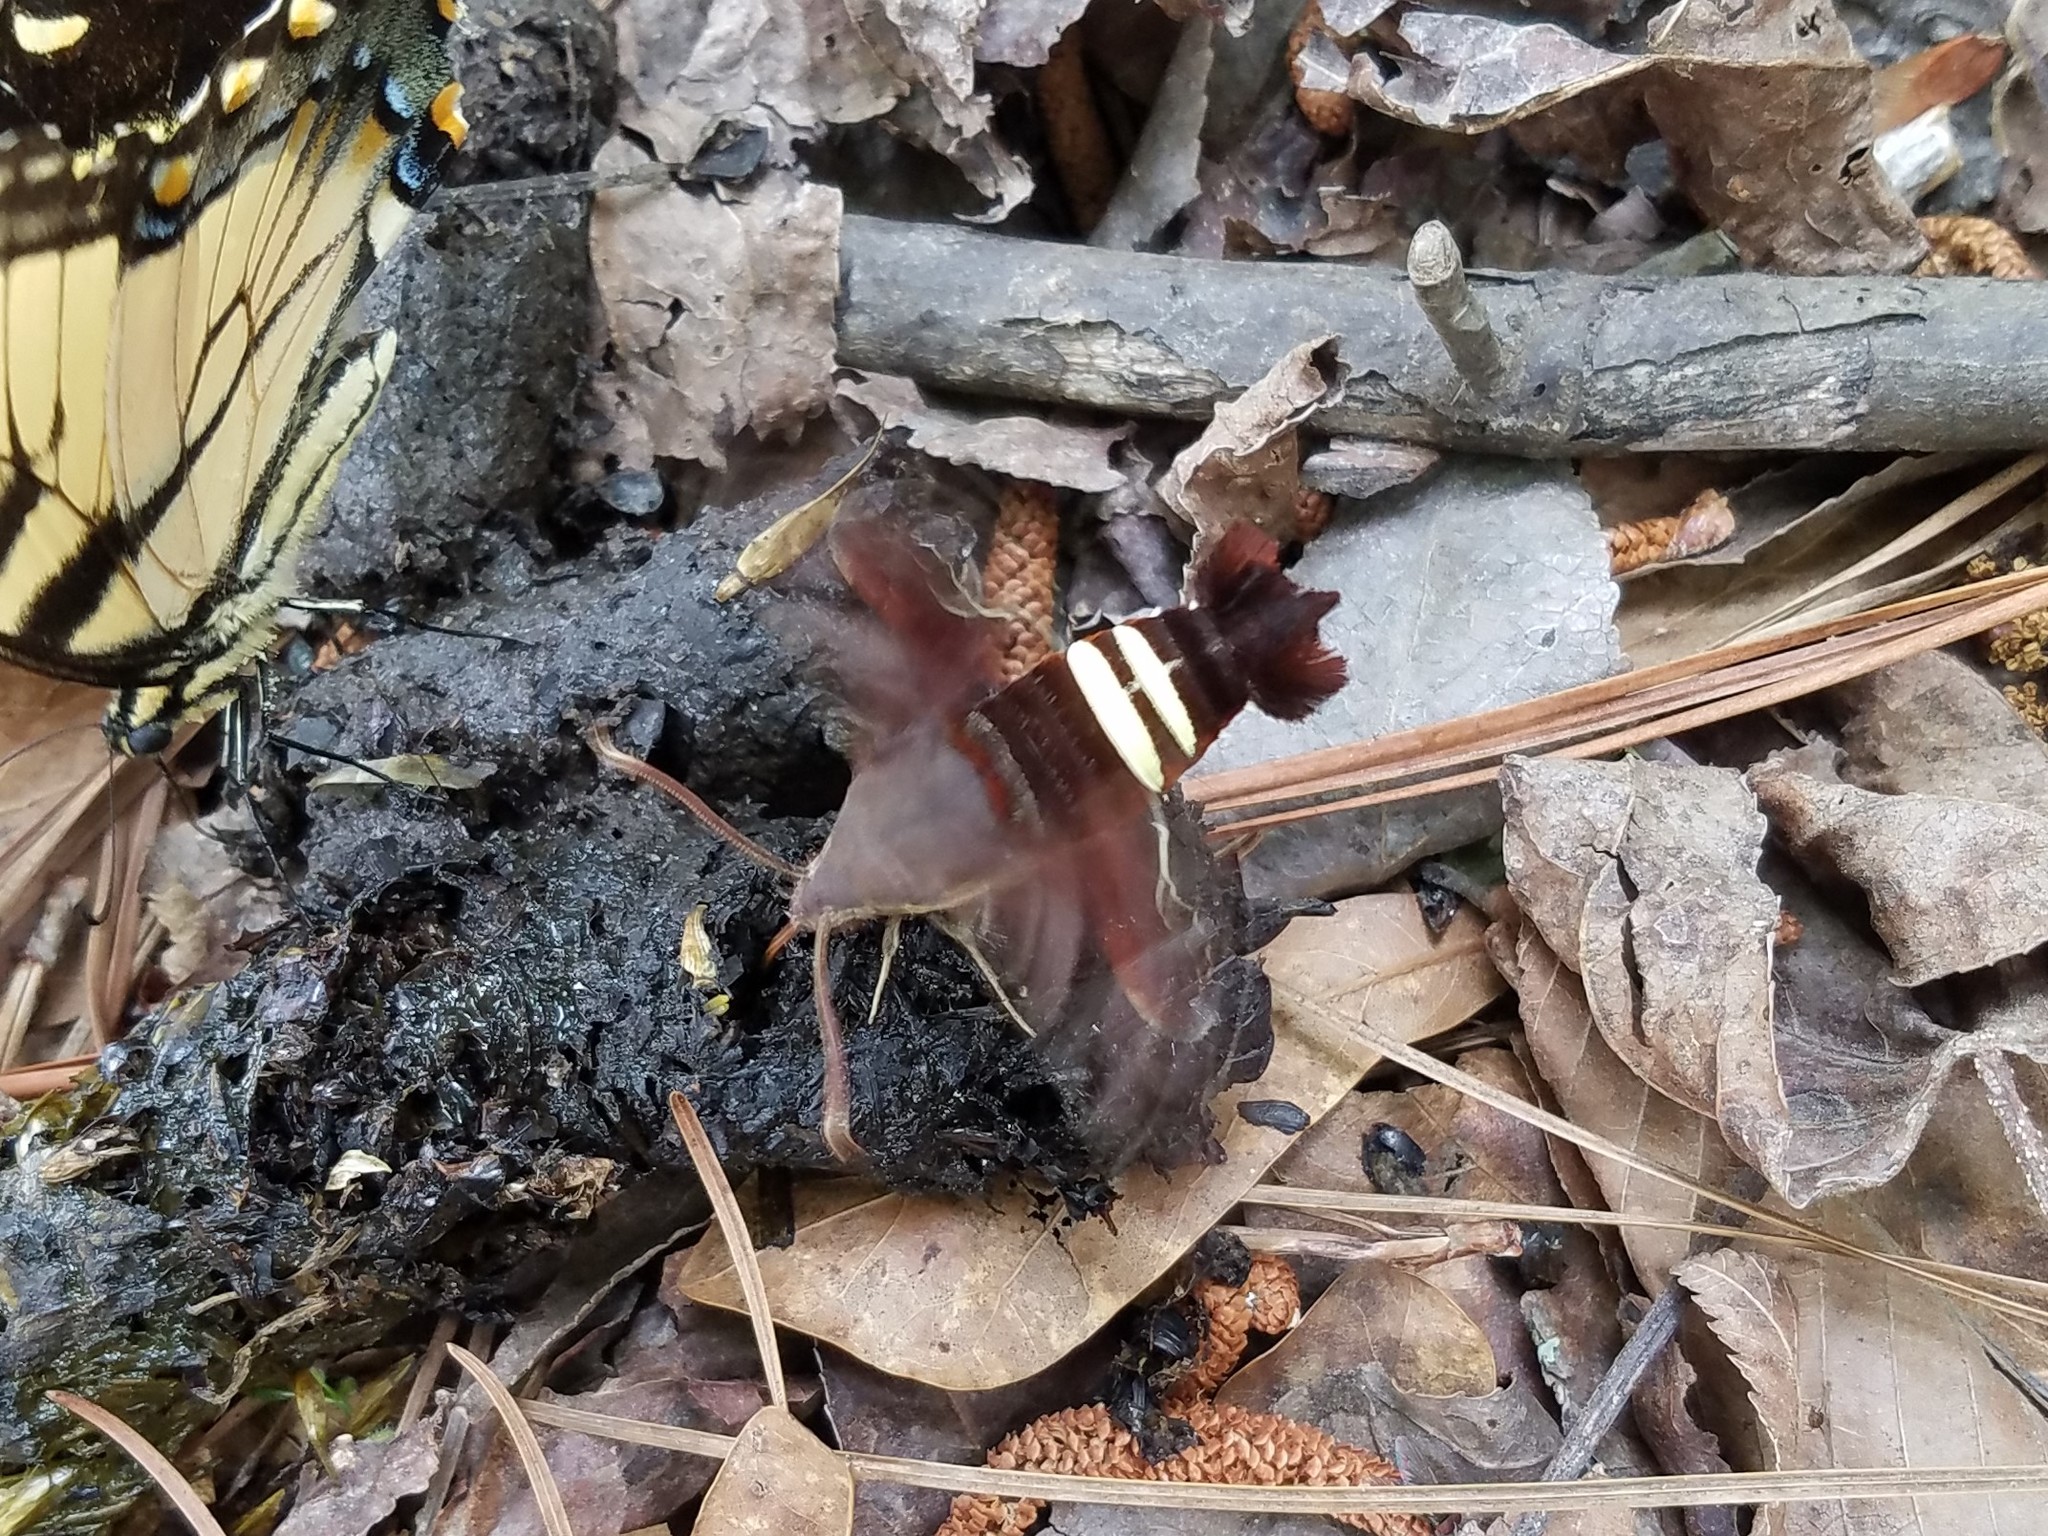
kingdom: Animalia
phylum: Arthropoda
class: Insecta
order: Lepidoptera
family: Sphingidae
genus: Amphion
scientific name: Amphion floridensis
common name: Nessus sphinx
